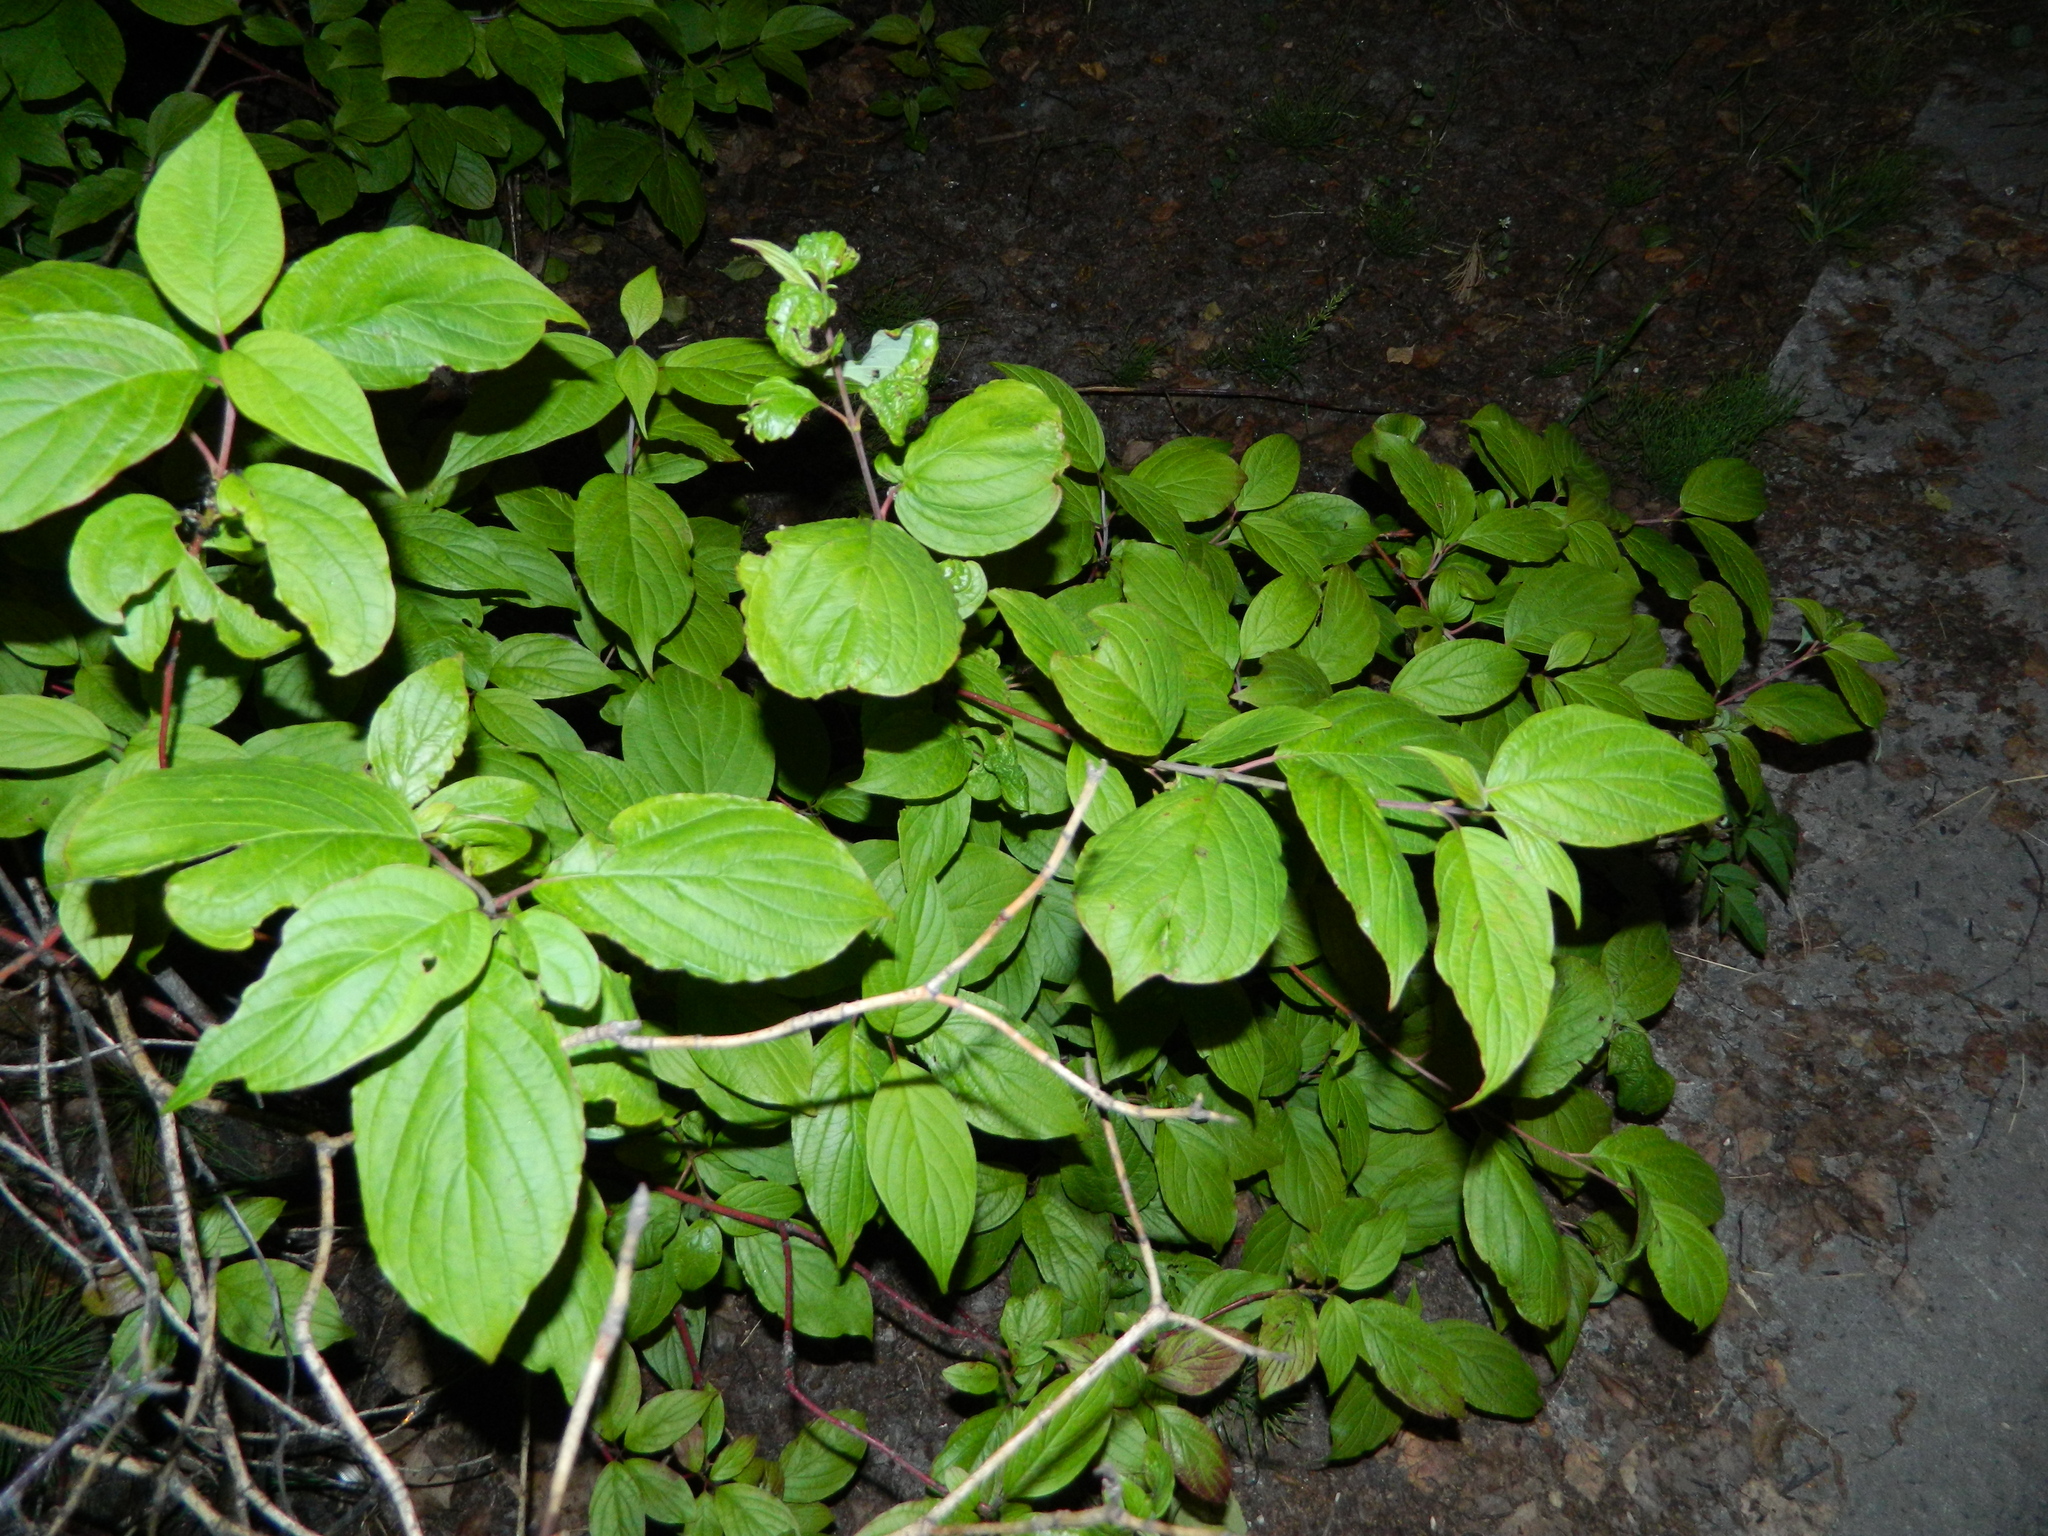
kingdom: Plantae
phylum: Tracheophyta
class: Magnoliopsida
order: Cornales
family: Cornaceae
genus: Cornus
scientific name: Cornus alba
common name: White dogwood
